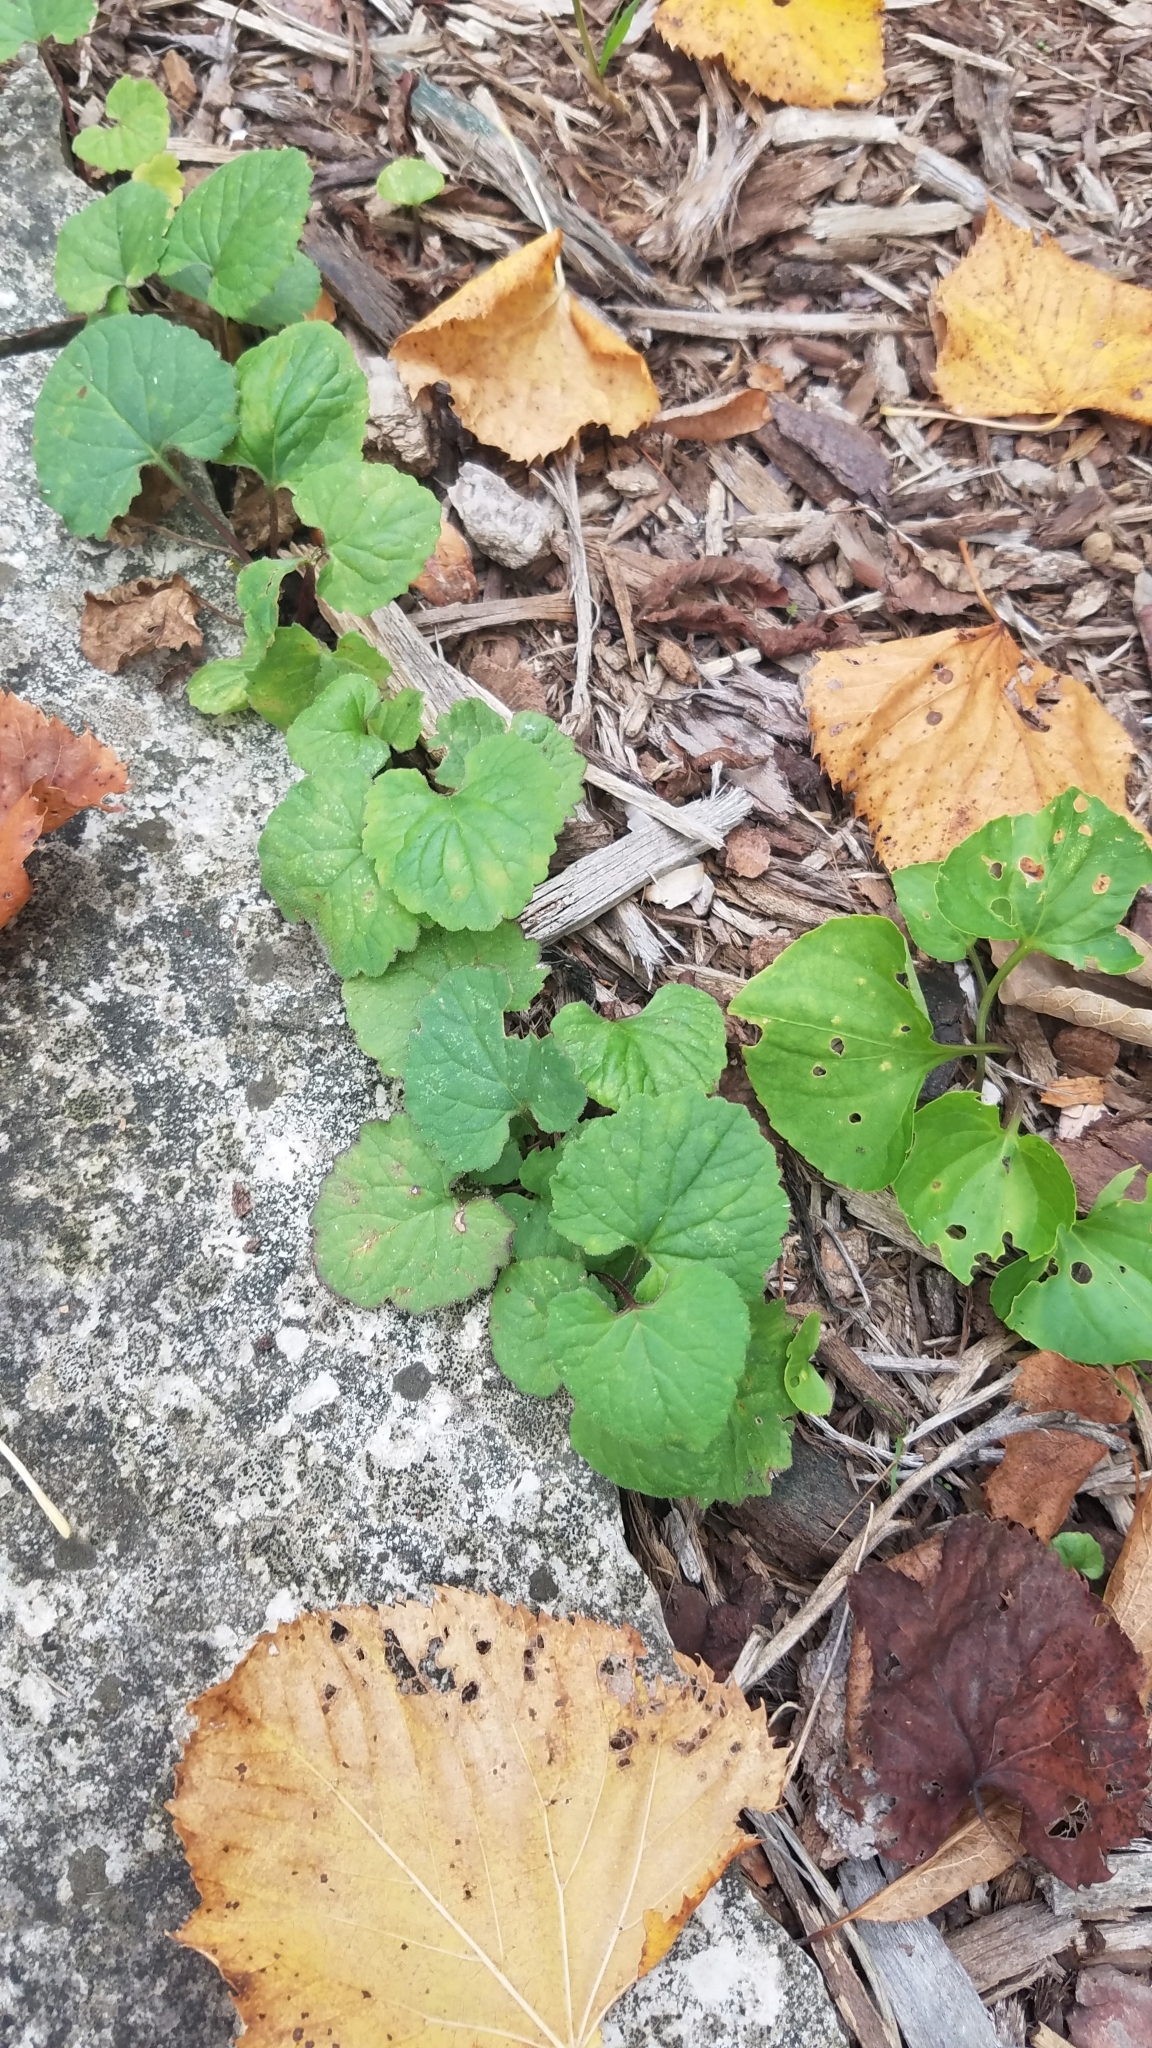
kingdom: Plantae
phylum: Tracheophyta
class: Magnoliopsida
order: Brassicales
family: Brassicaceae
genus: Alliaria
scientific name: Alliaria petiolata
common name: Garlic mustard
